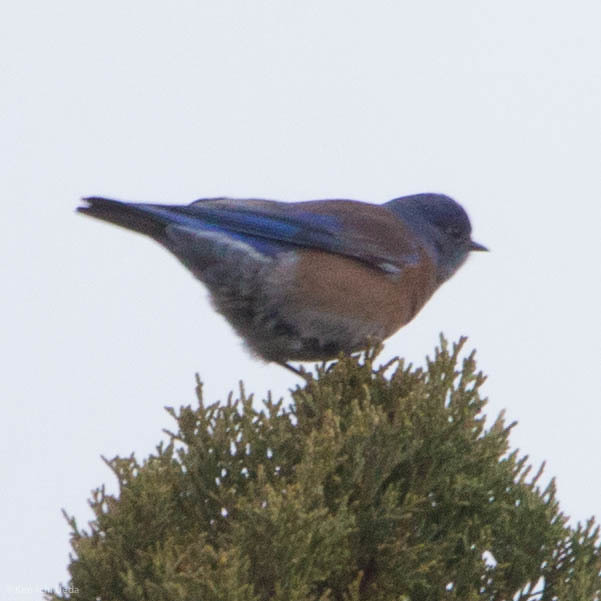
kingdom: Animalia
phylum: Chordata
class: Aves
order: Passeriformes
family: Turdidae
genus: Sialia
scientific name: Sialia mexicana
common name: Western bluebird
